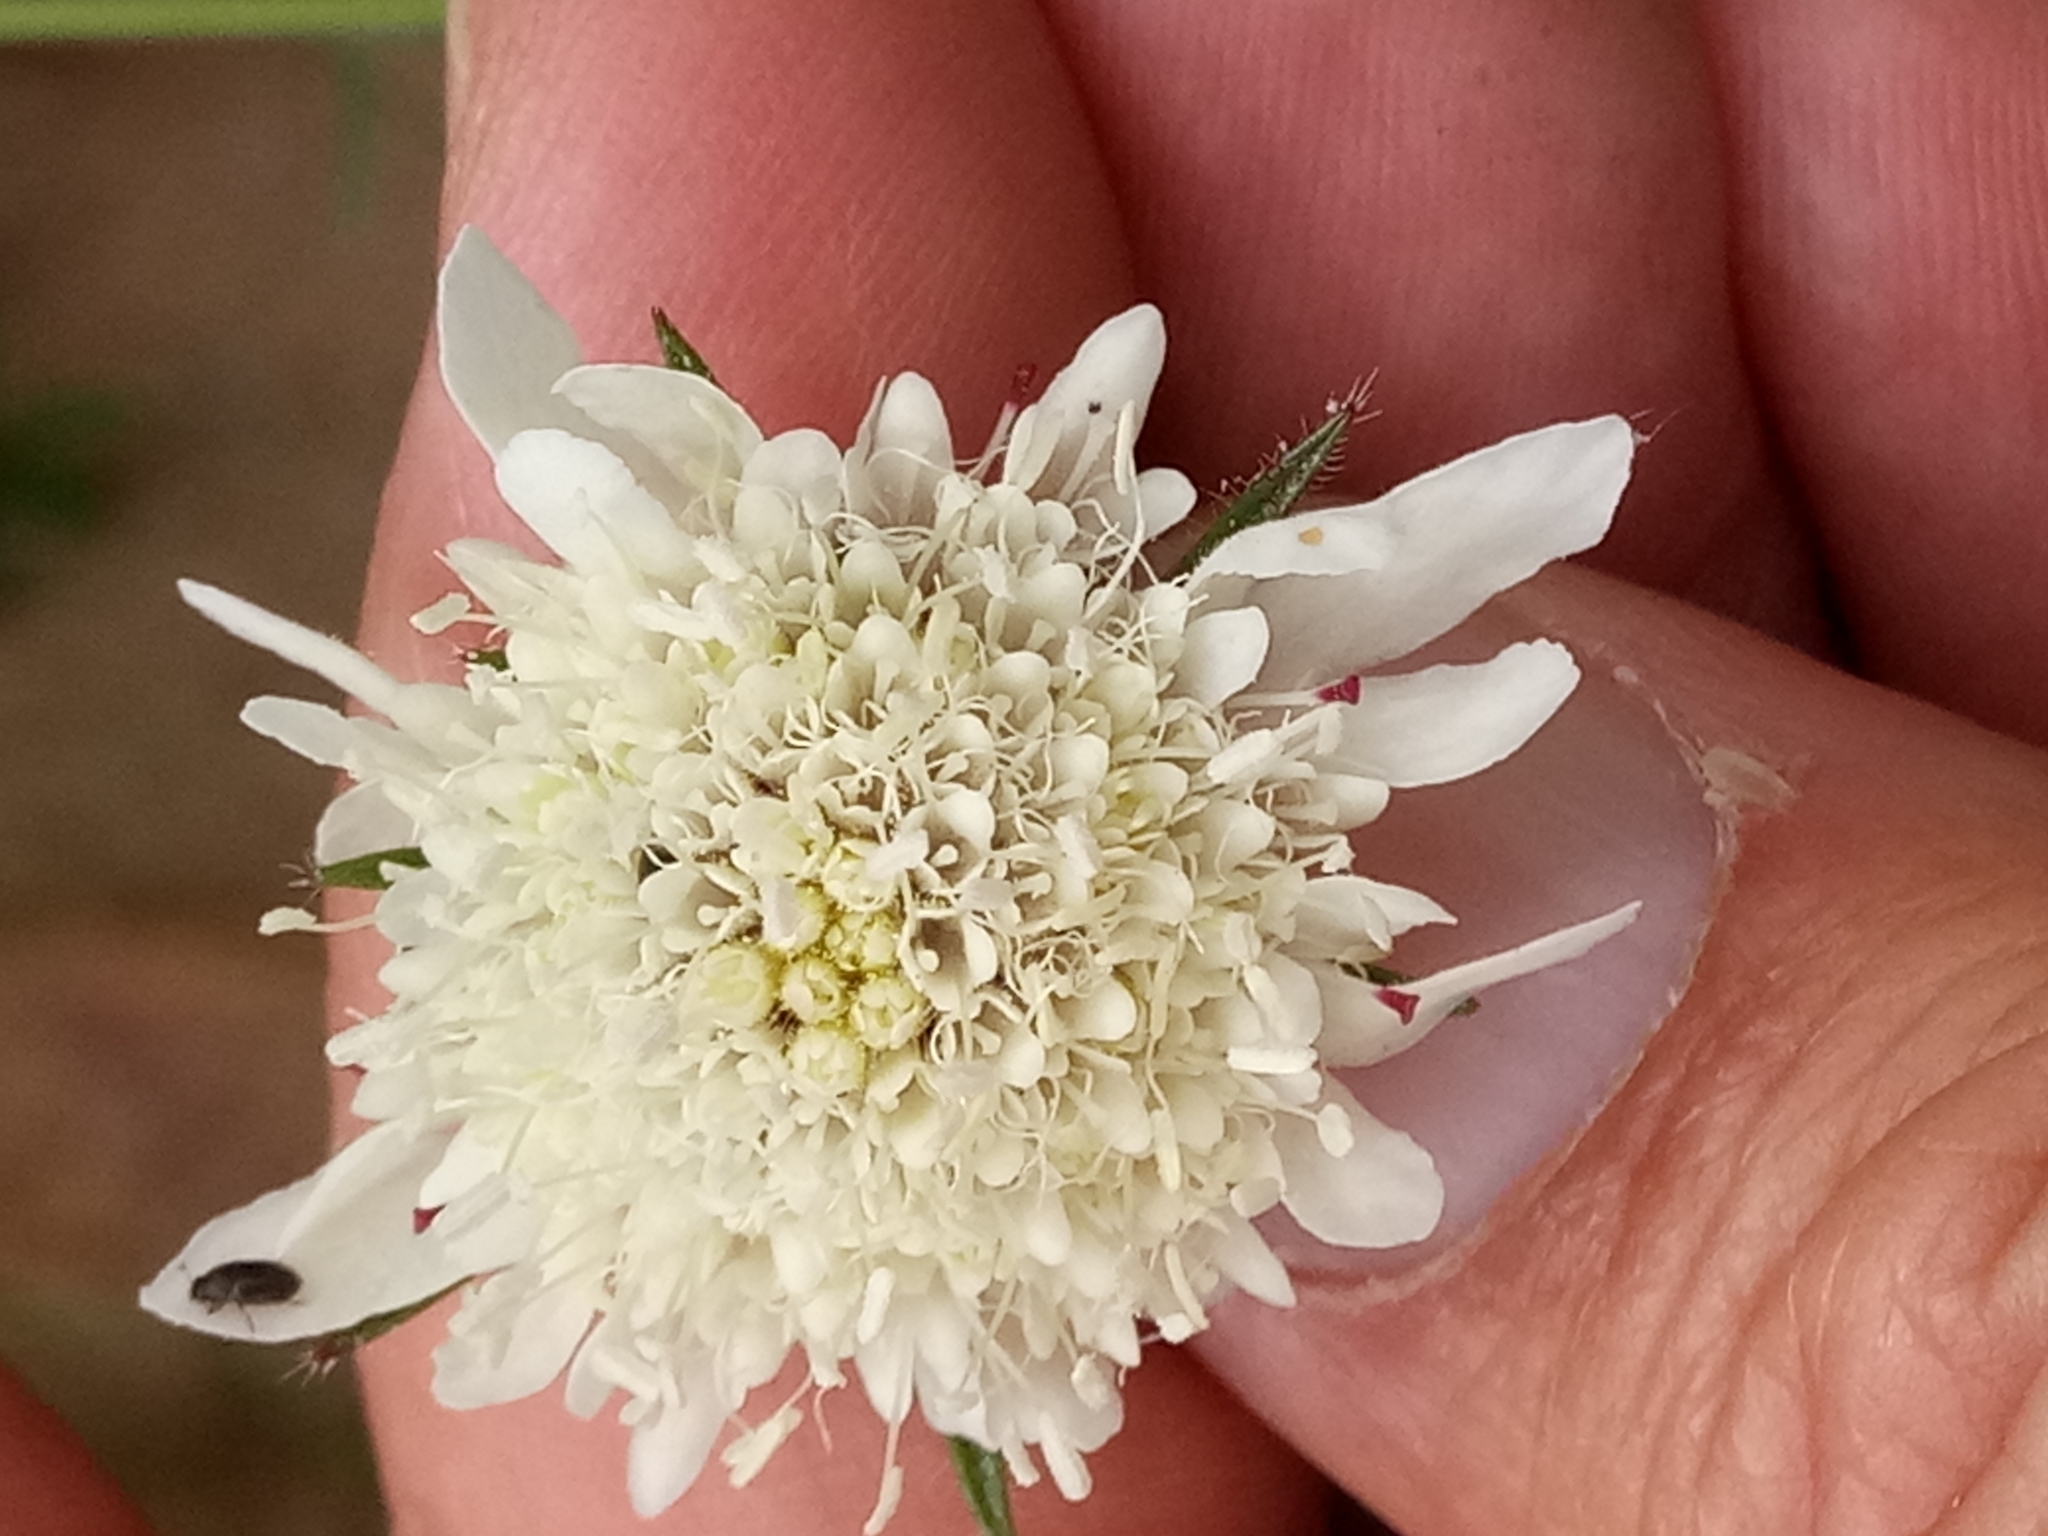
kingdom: Plantae
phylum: Tracheophyta
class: Magnoliopsida
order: Dipsacales
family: Caprifoliaceae
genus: Sixalix
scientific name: Sixalix atropurpurea
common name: Sweet scabious
